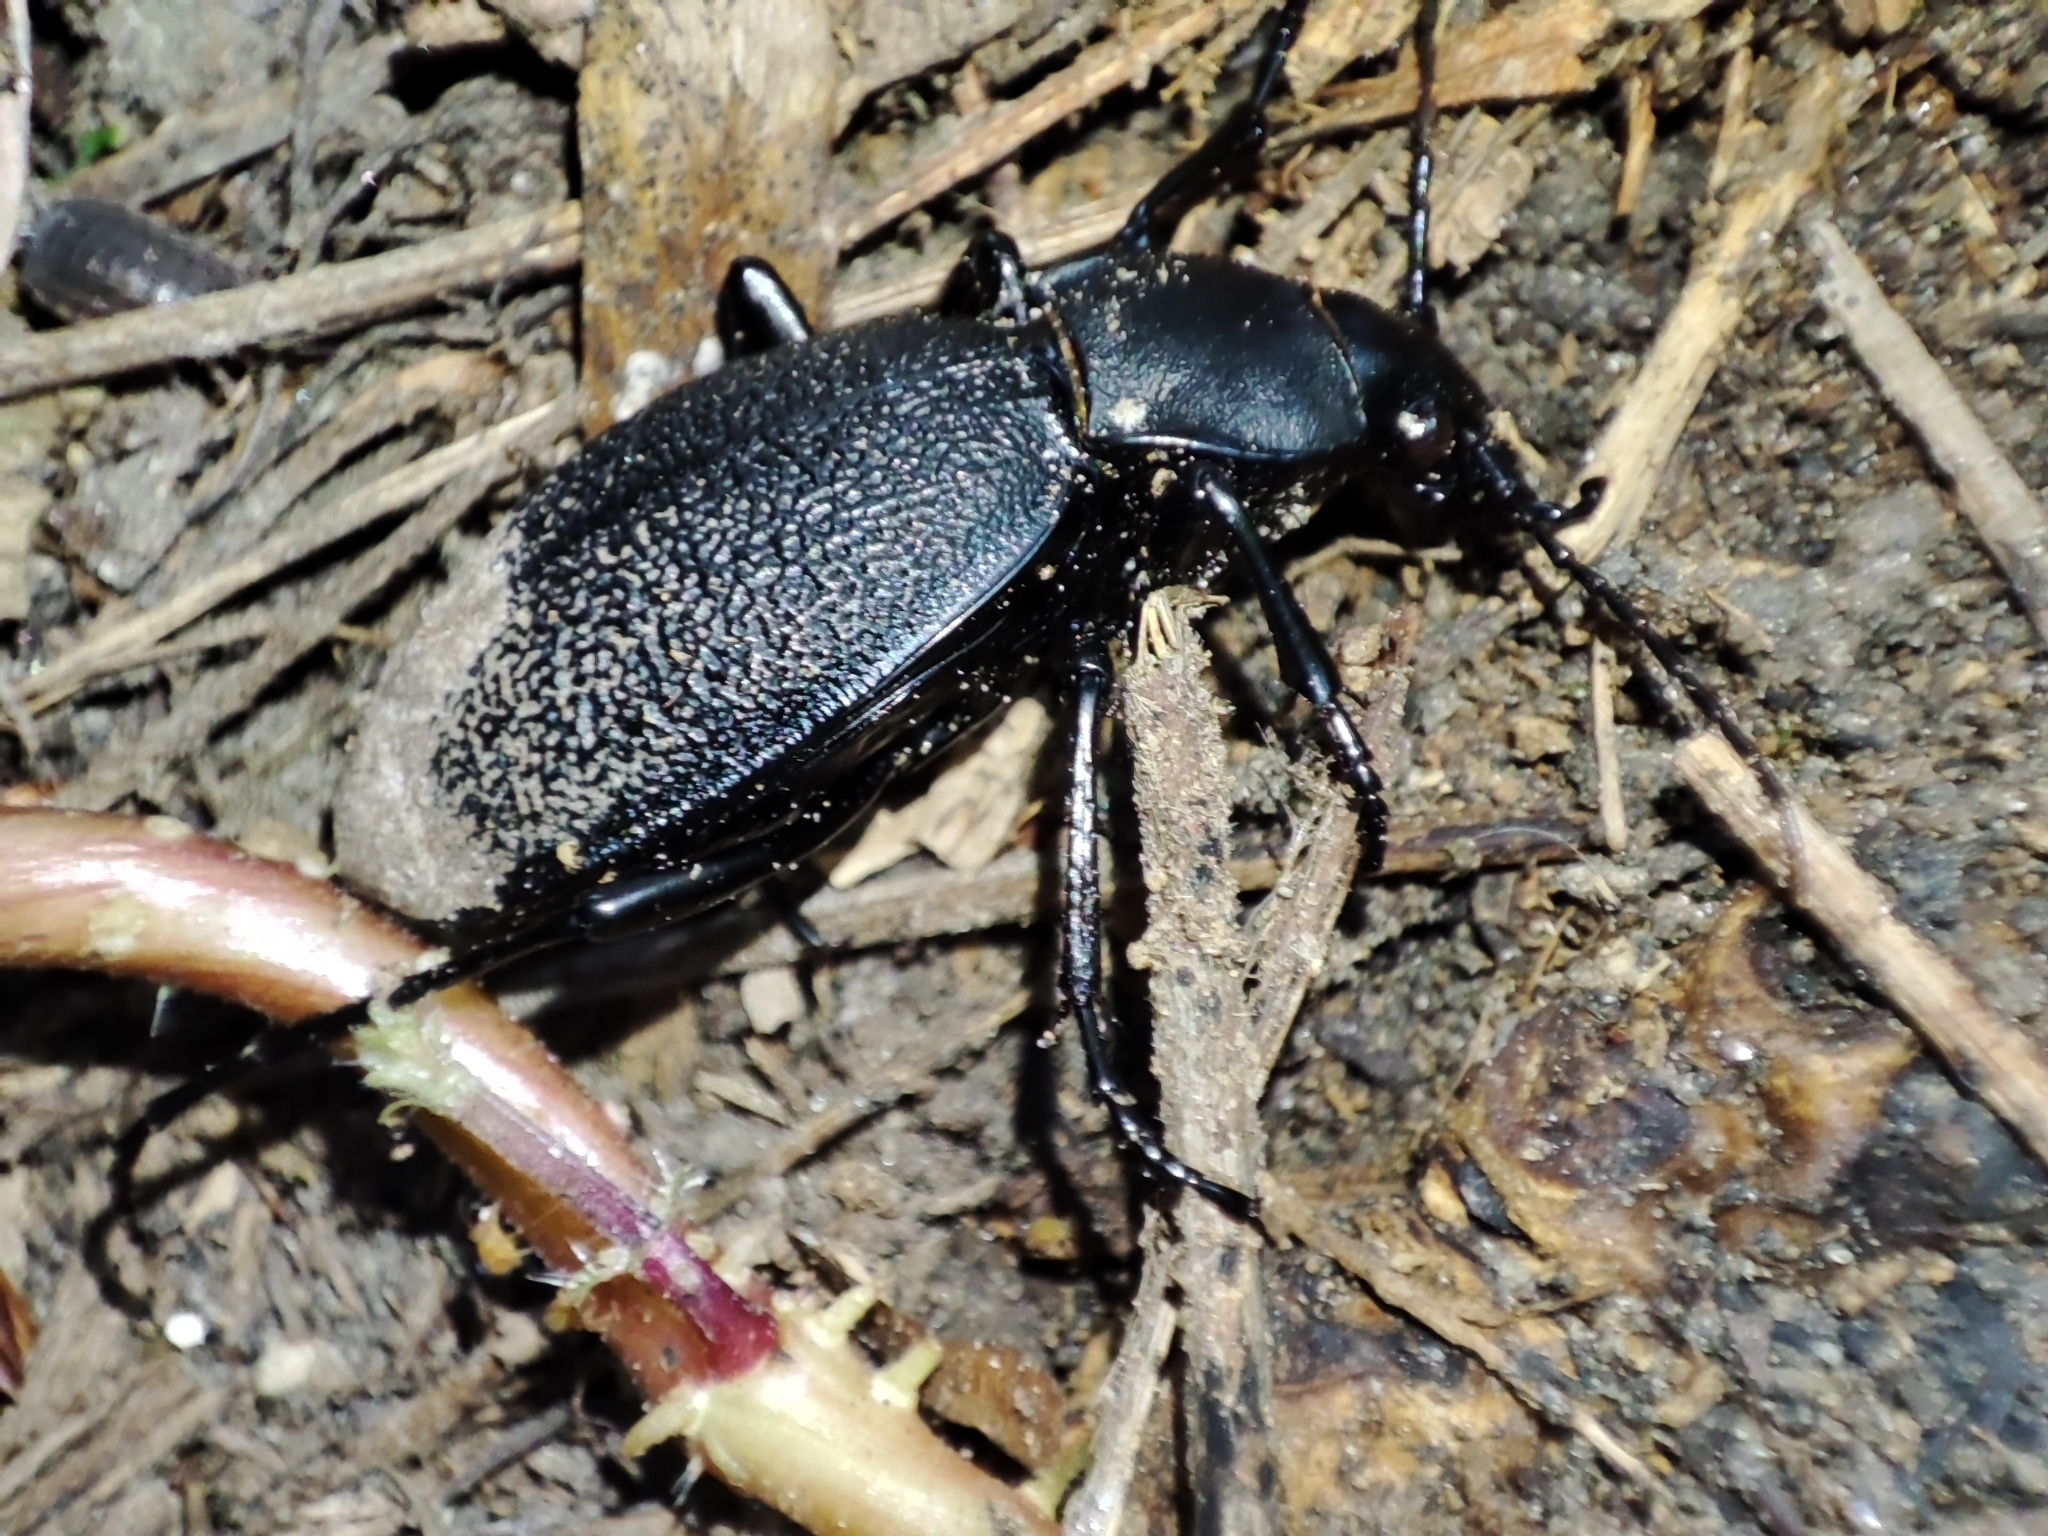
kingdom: Animalia
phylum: Arthropoda
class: Insecta
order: Coleoptera
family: Carabidae
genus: Carabus
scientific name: Carabus coriaceus
